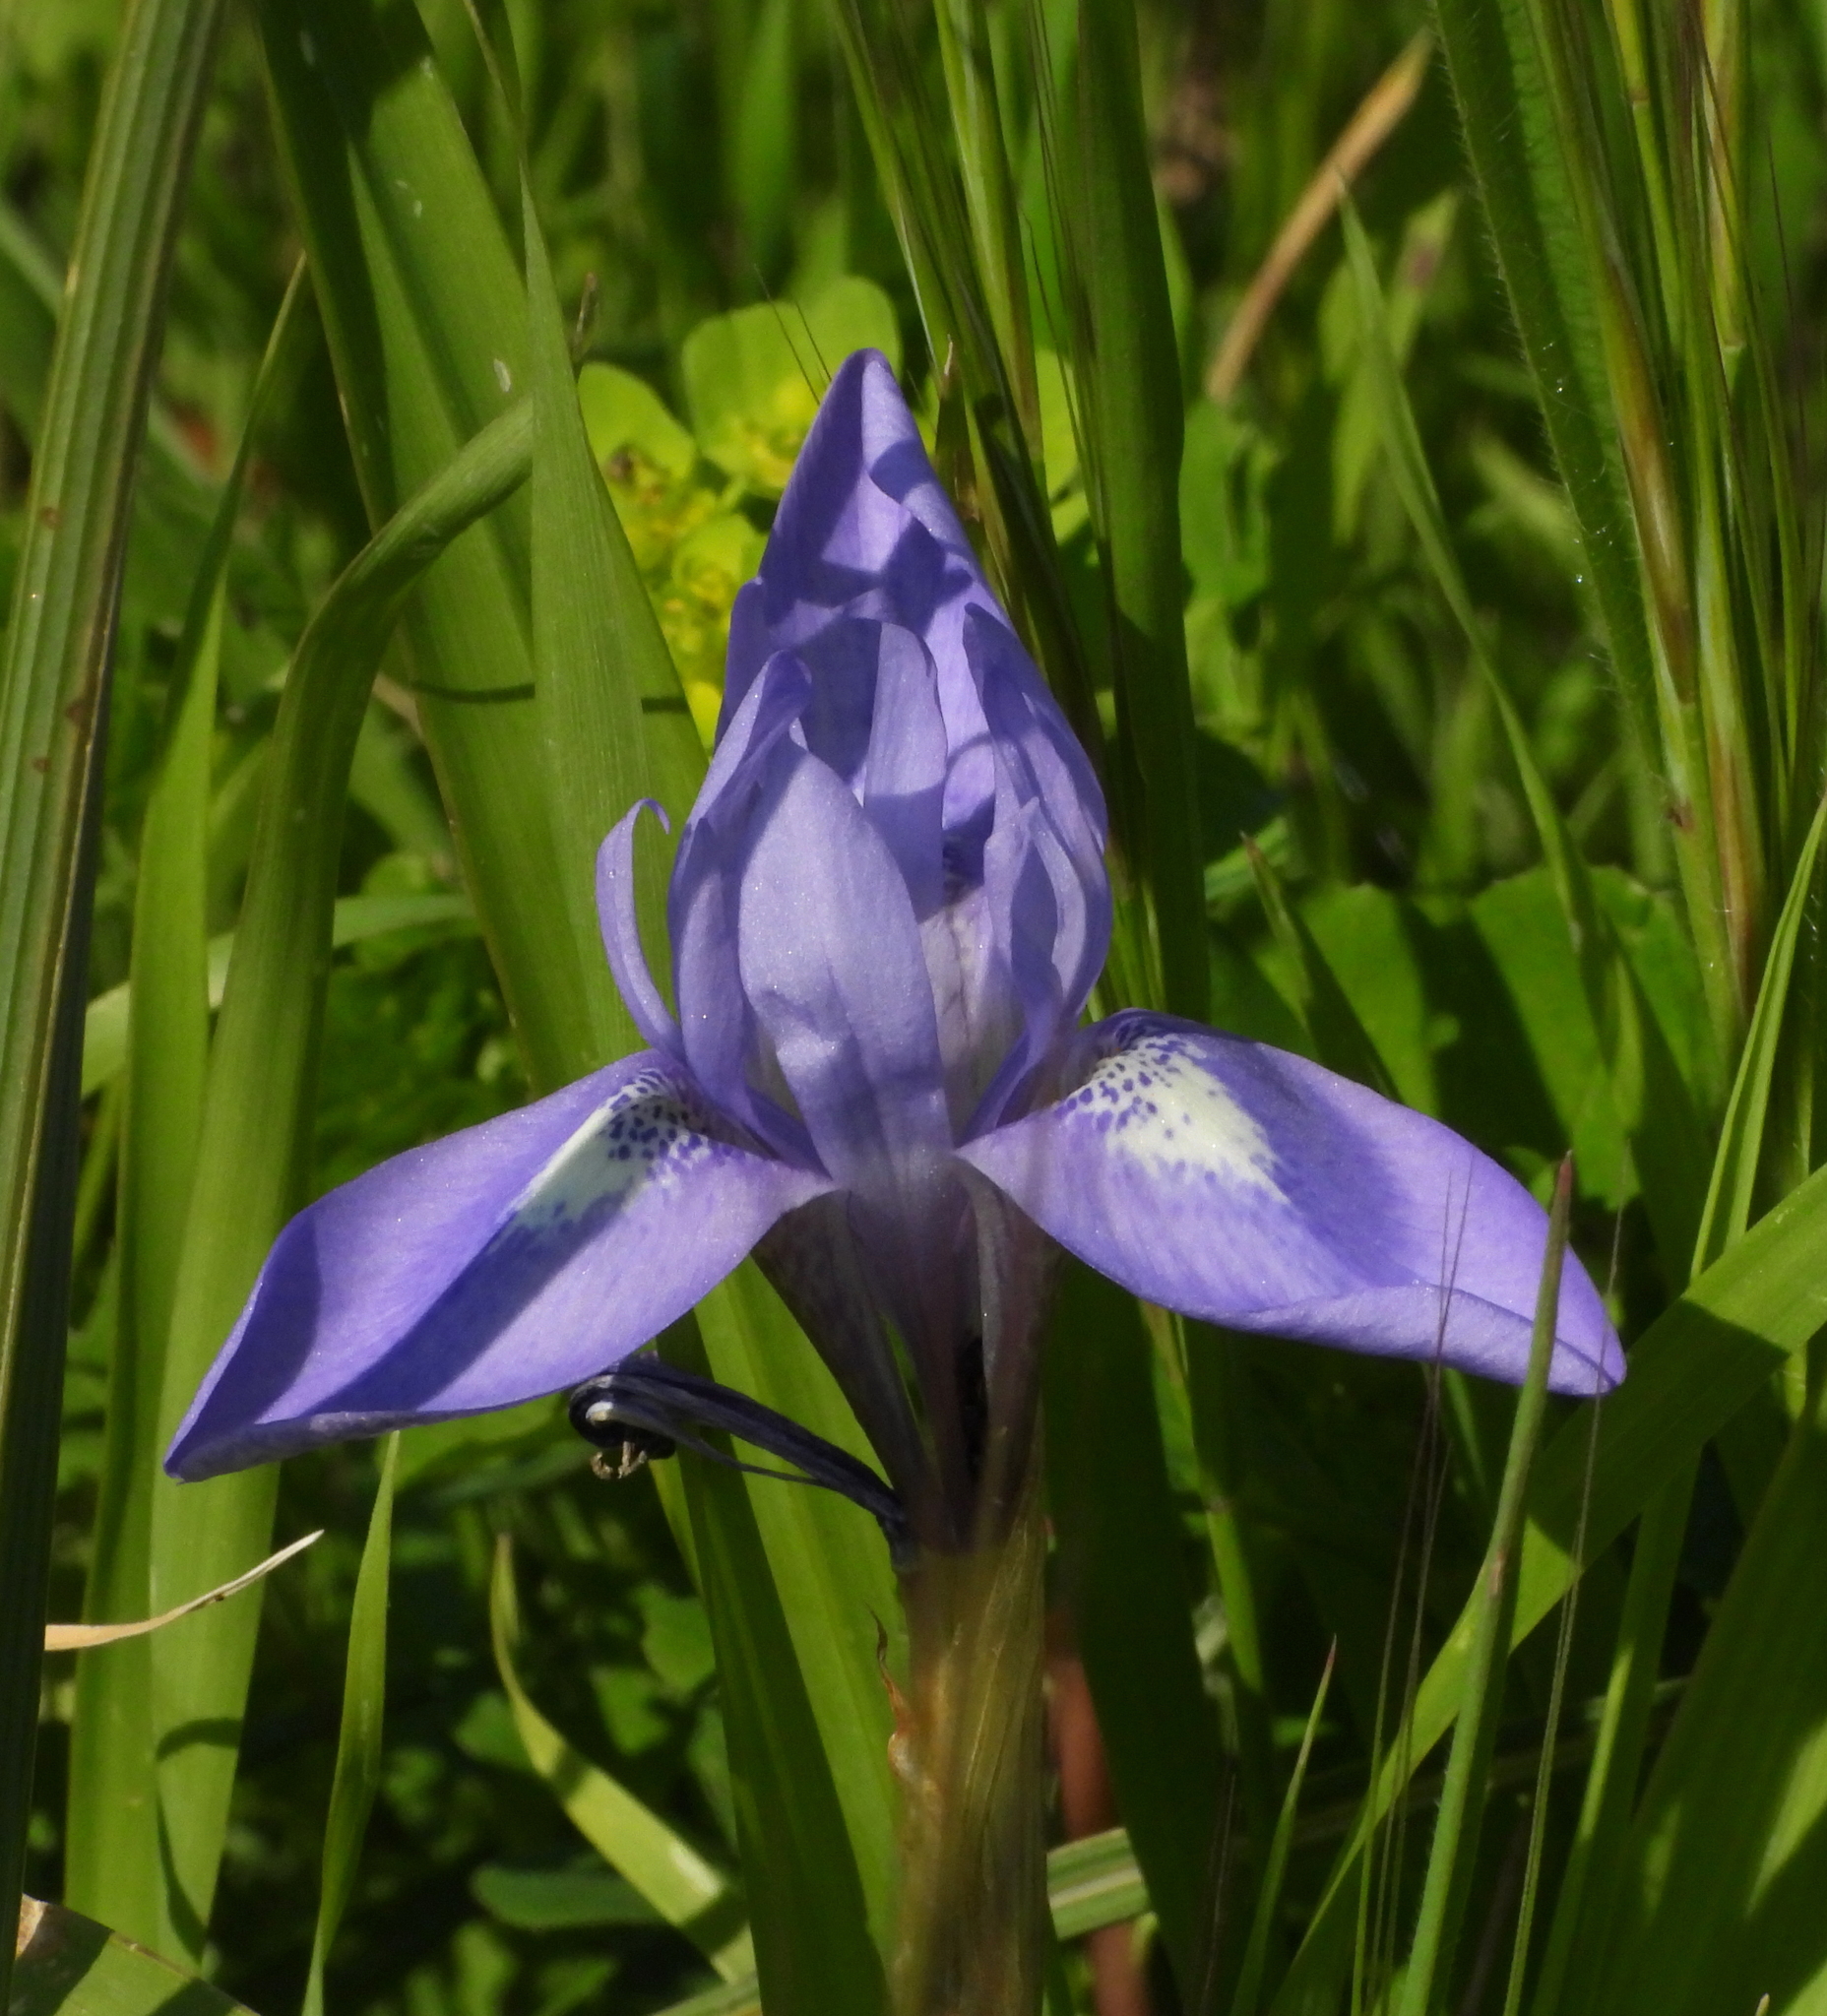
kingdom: Plantae
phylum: Tracheophyta
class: Liliopsida
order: Asparagales
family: Iridaceae
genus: Moraea
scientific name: Moraea sisyrinchium
